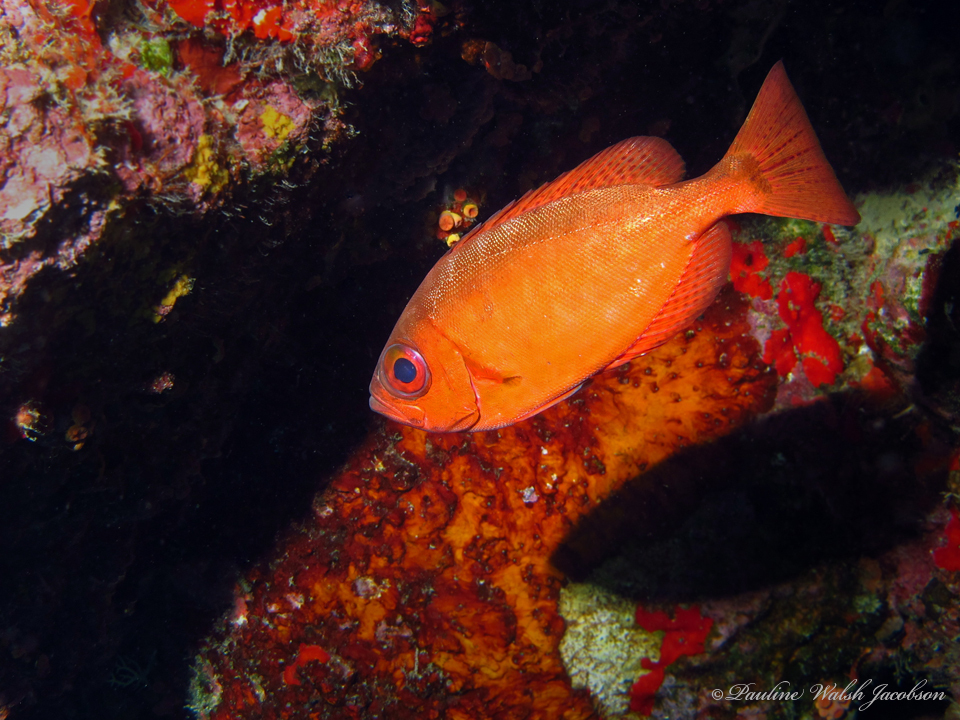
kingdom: Animalia
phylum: Chordata
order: Perciformes
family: Priacanthidae
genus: Heteropriacanthus
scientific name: Heteropriacanthus cruentatus
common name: Glasseye
